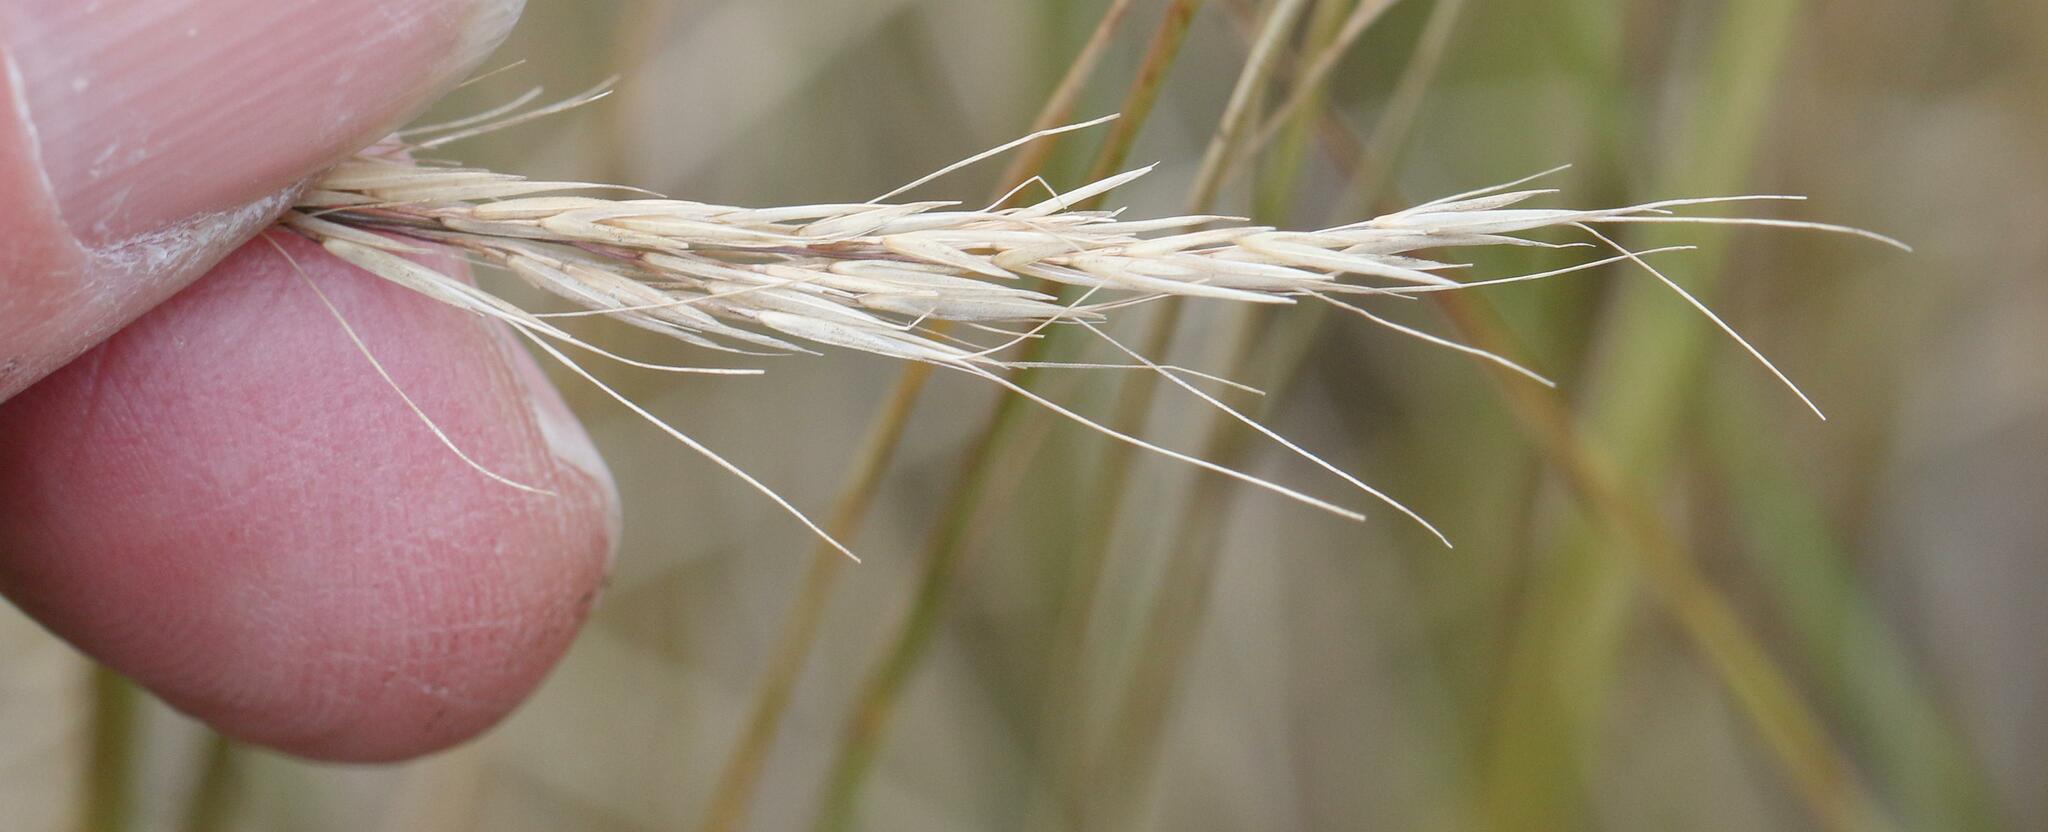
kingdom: Plantae
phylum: Tracheophyta
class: Liliopsida
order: Poales
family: Poaceae
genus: Aristida
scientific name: Aristida junciformis
